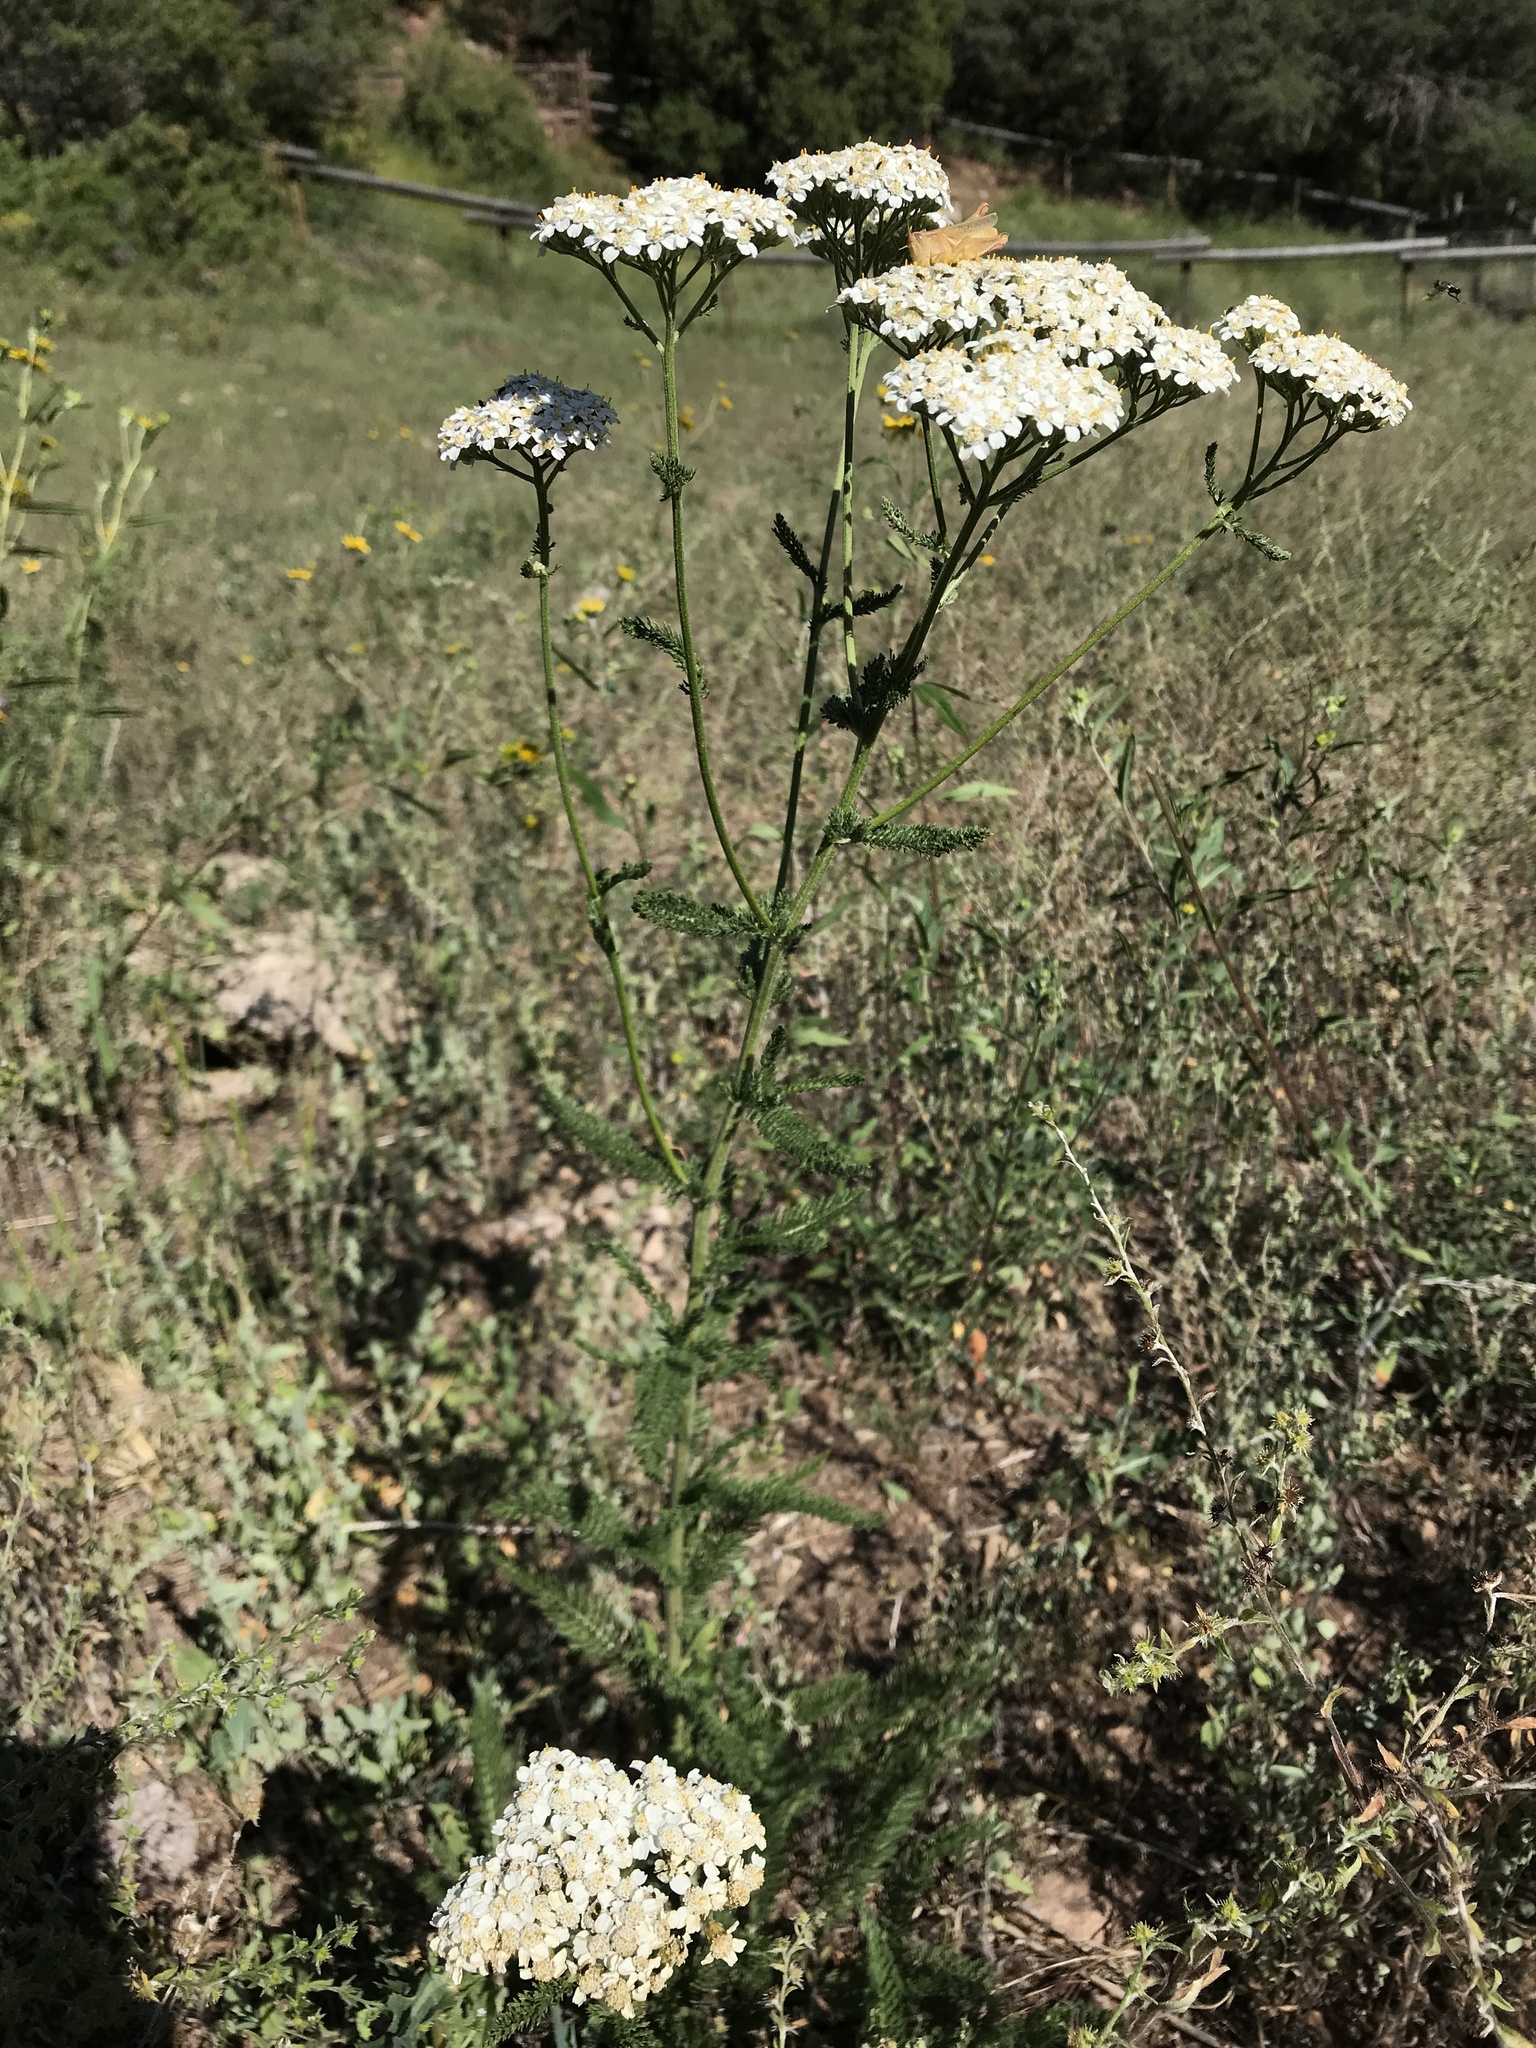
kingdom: Plantae
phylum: Tracheophyta
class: Magnoliopsida
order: Asterales
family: Asteraceae
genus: Achillea
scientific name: Achillea millefolium
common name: Yarrow
